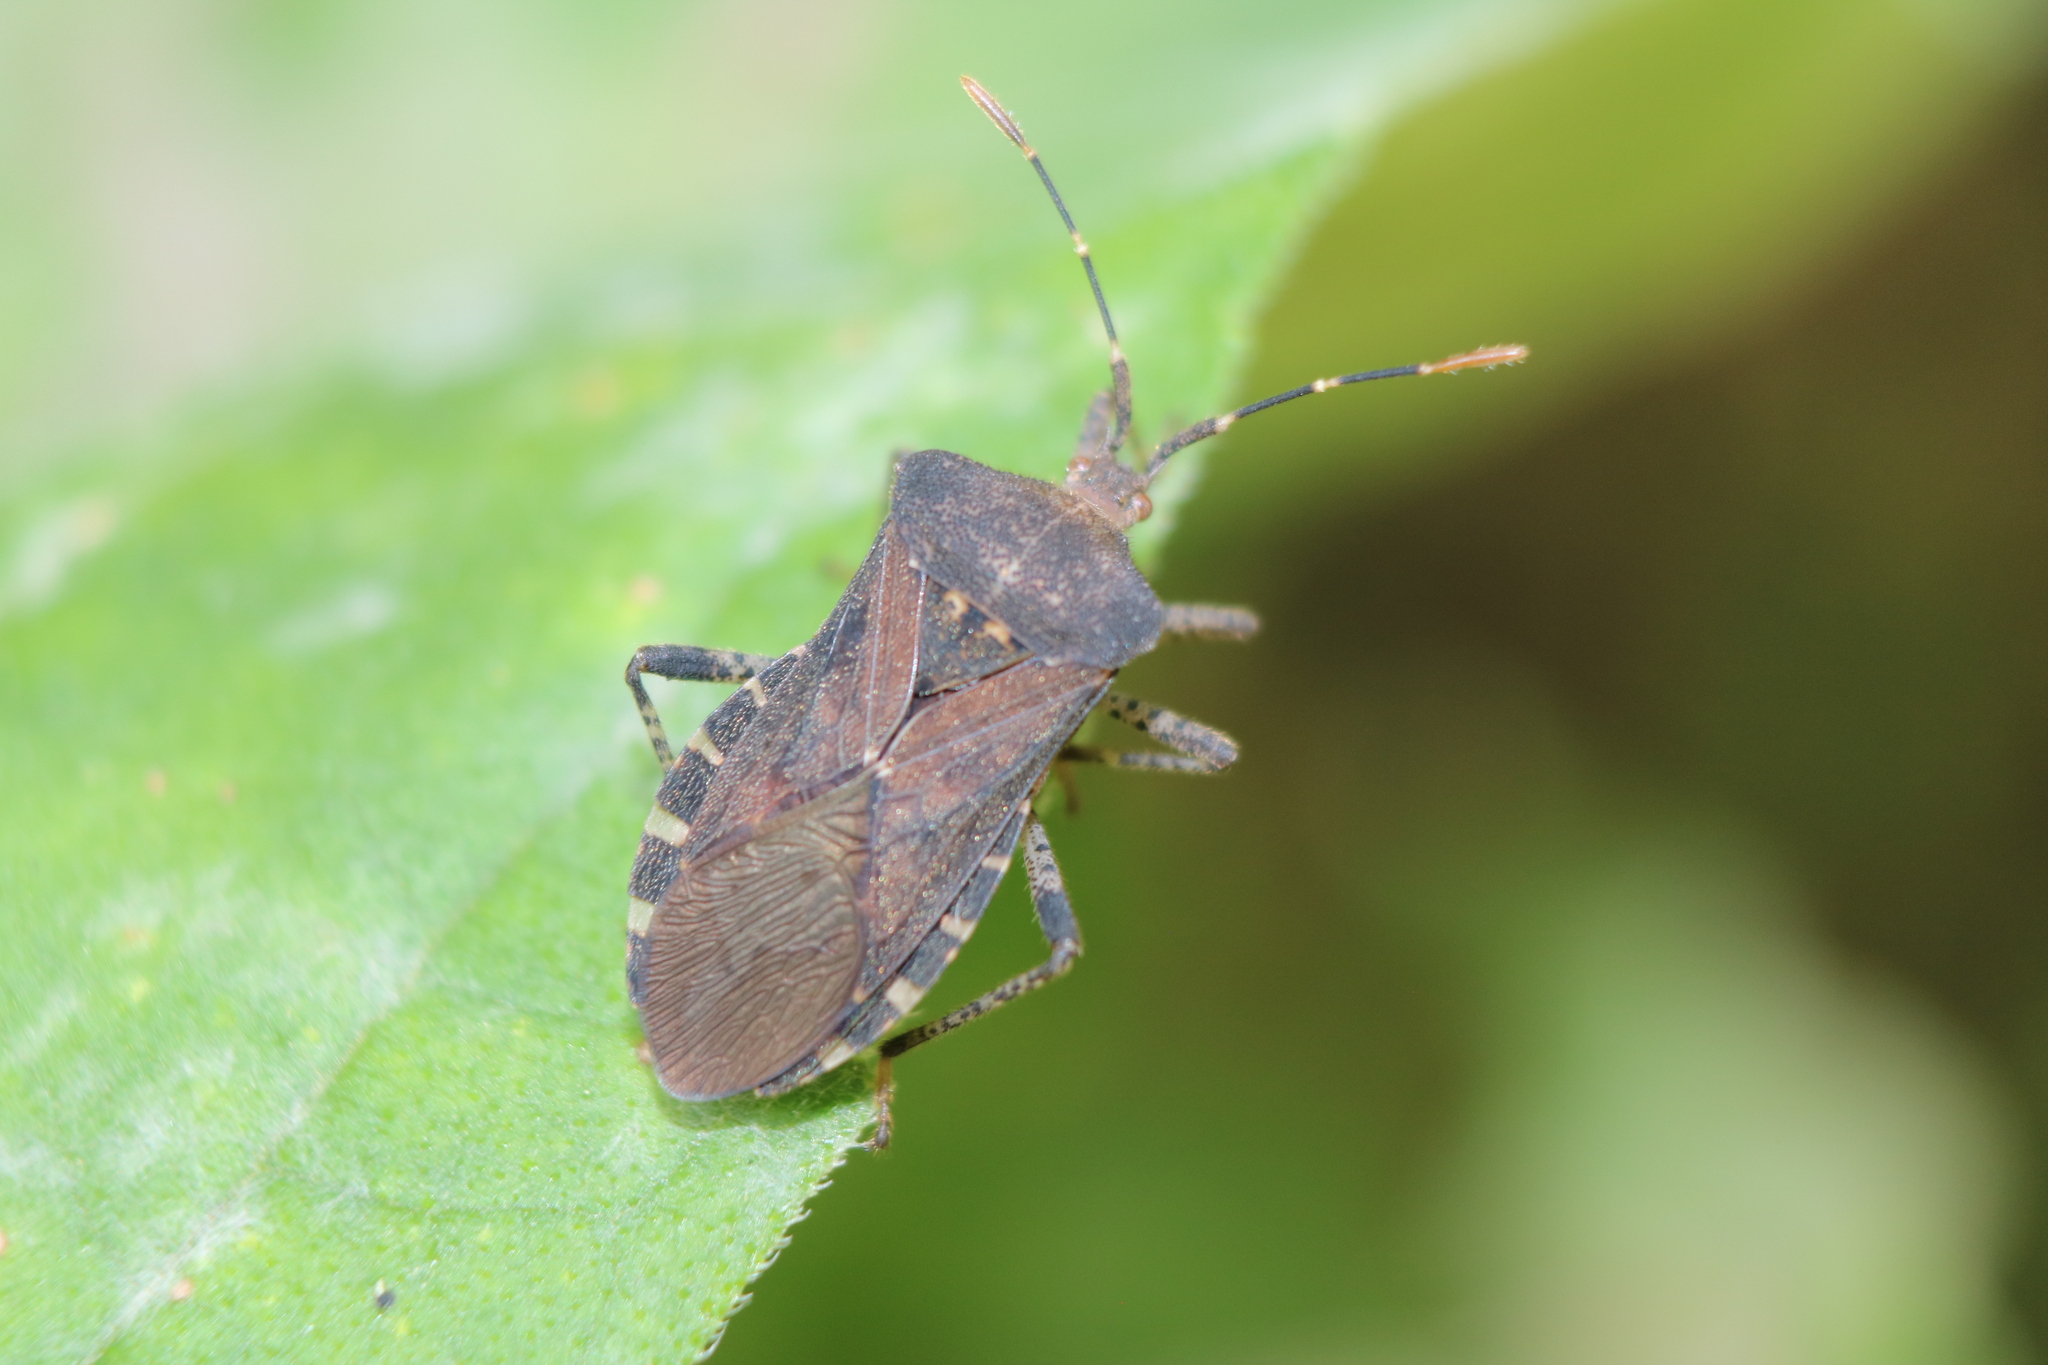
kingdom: Animalia
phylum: Arthropoda
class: Insecta
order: Hemiptera
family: Coreidae
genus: Anasa
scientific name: Anasa armigera
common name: Horned squash bug
